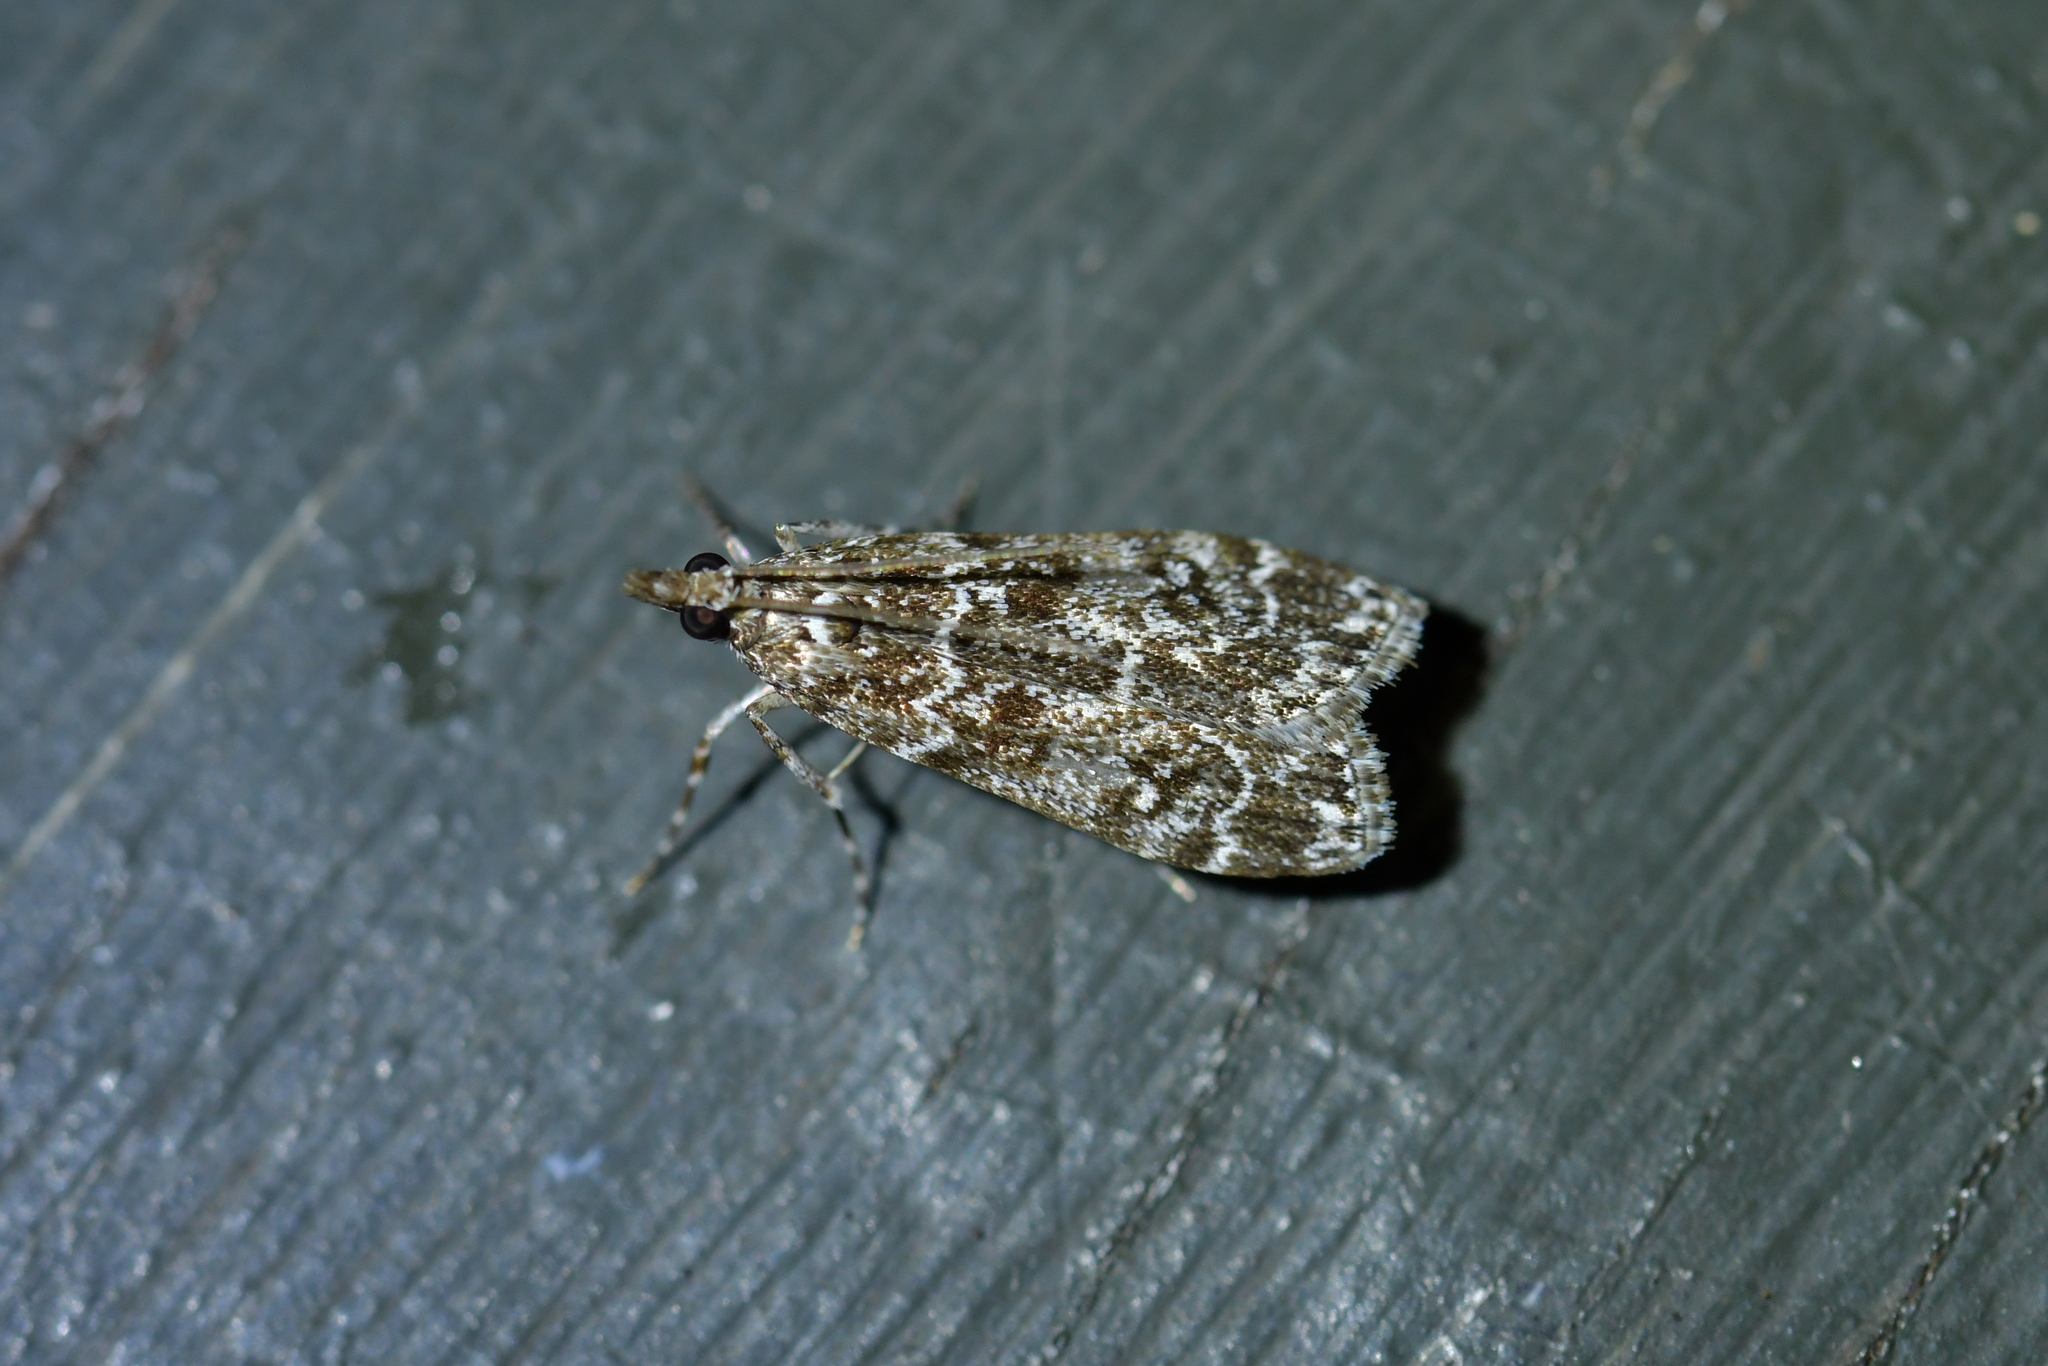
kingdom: Animalia
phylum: Arthropoda
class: Insecta
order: Lepidoptera
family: Crambidae
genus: Eudonia
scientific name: Eudonia philerga
